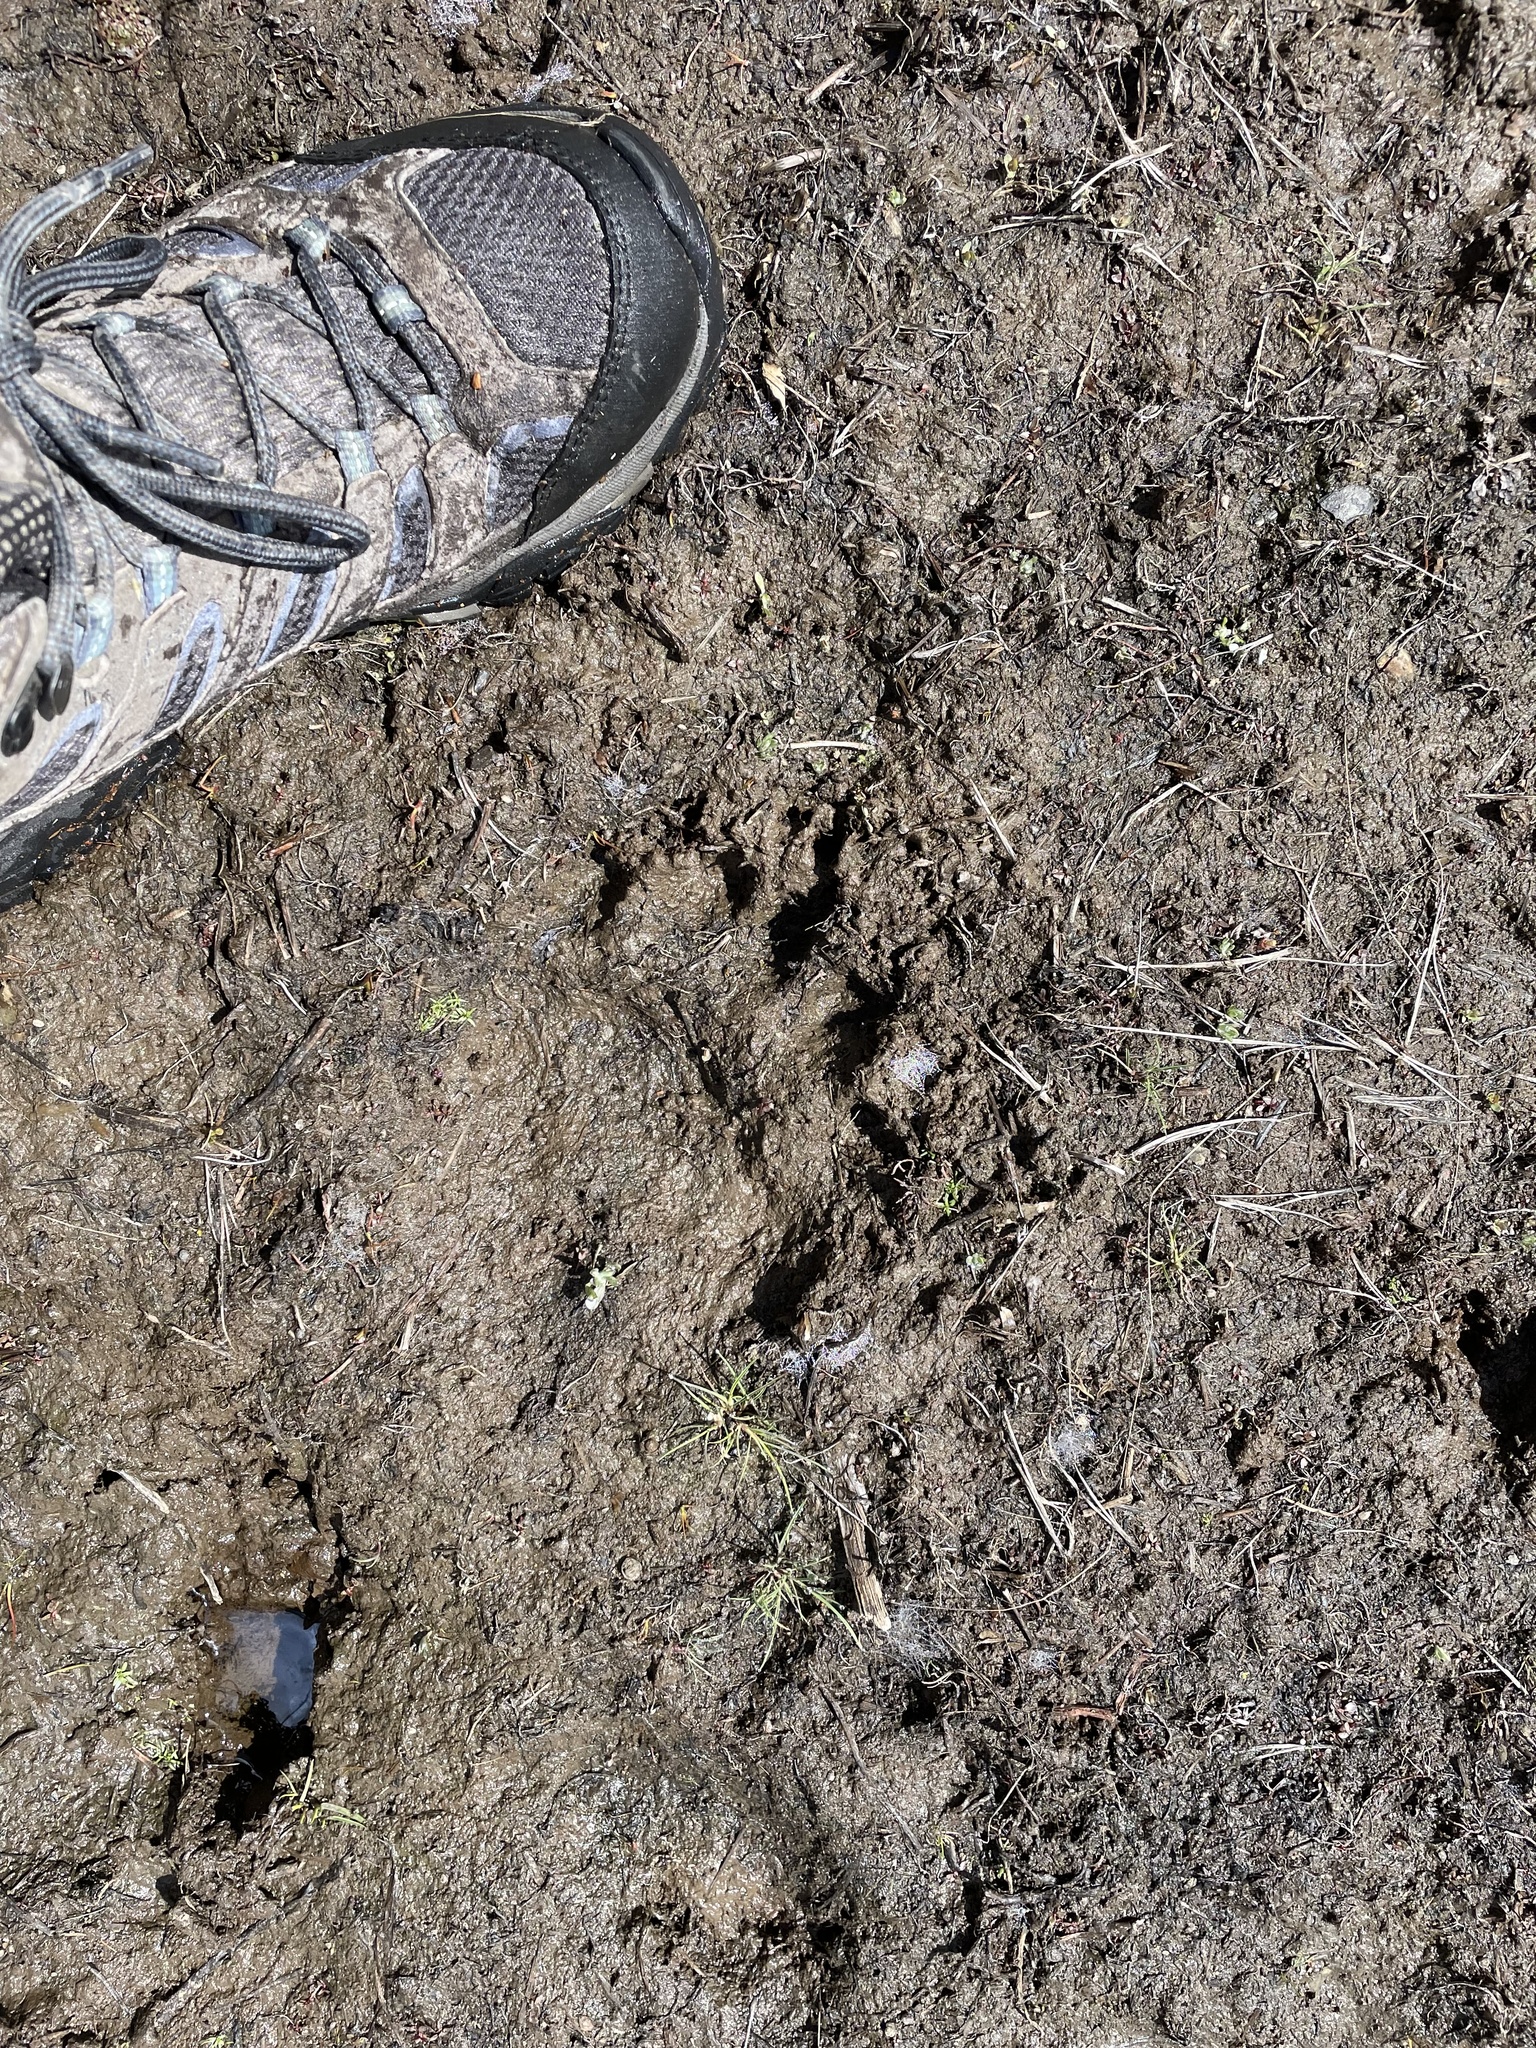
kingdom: Animalia
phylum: Chordata
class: Mammalia
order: Carnivora
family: Ursidae
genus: Ursus
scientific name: Ursus americanus
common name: American black bear
